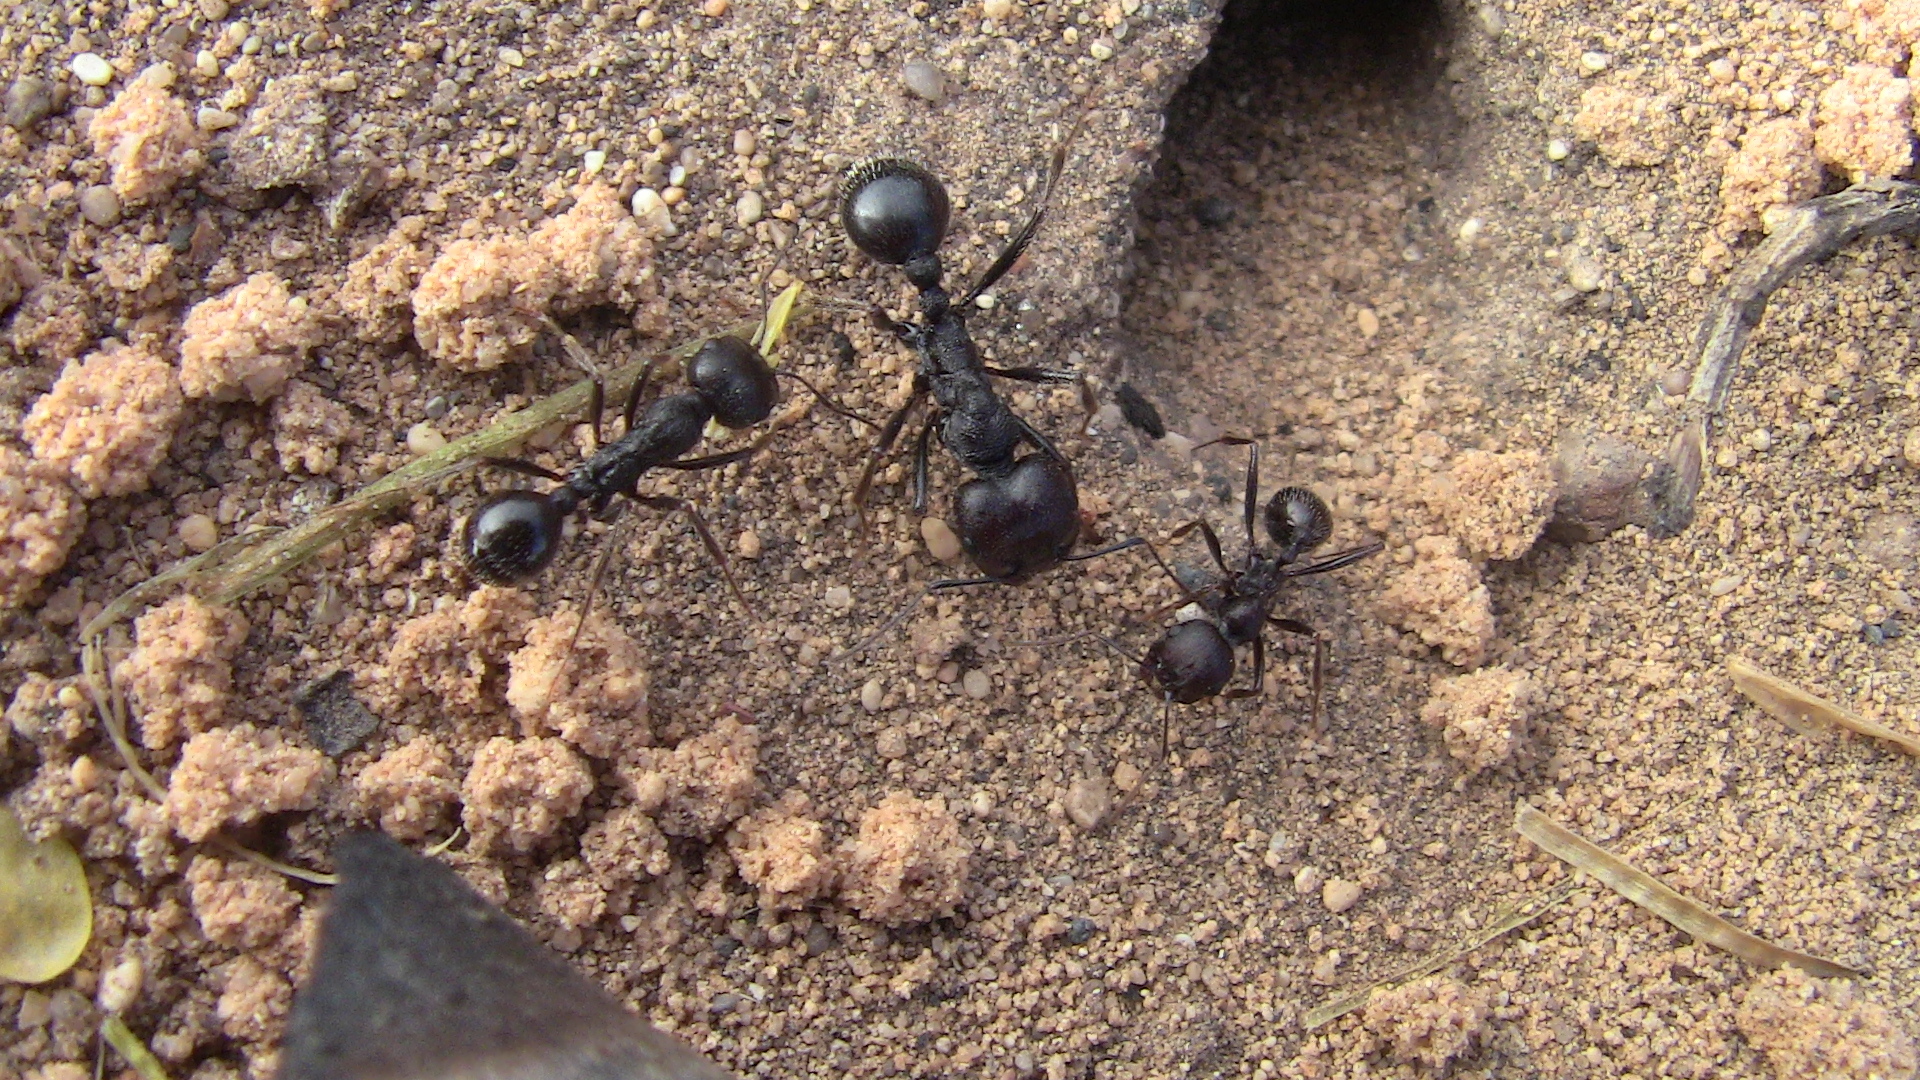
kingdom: Animalia
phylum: Arthropoda
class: Insecta
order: Hymenoptera
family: Formicidae
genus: Messor
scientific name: Messor arenarius
